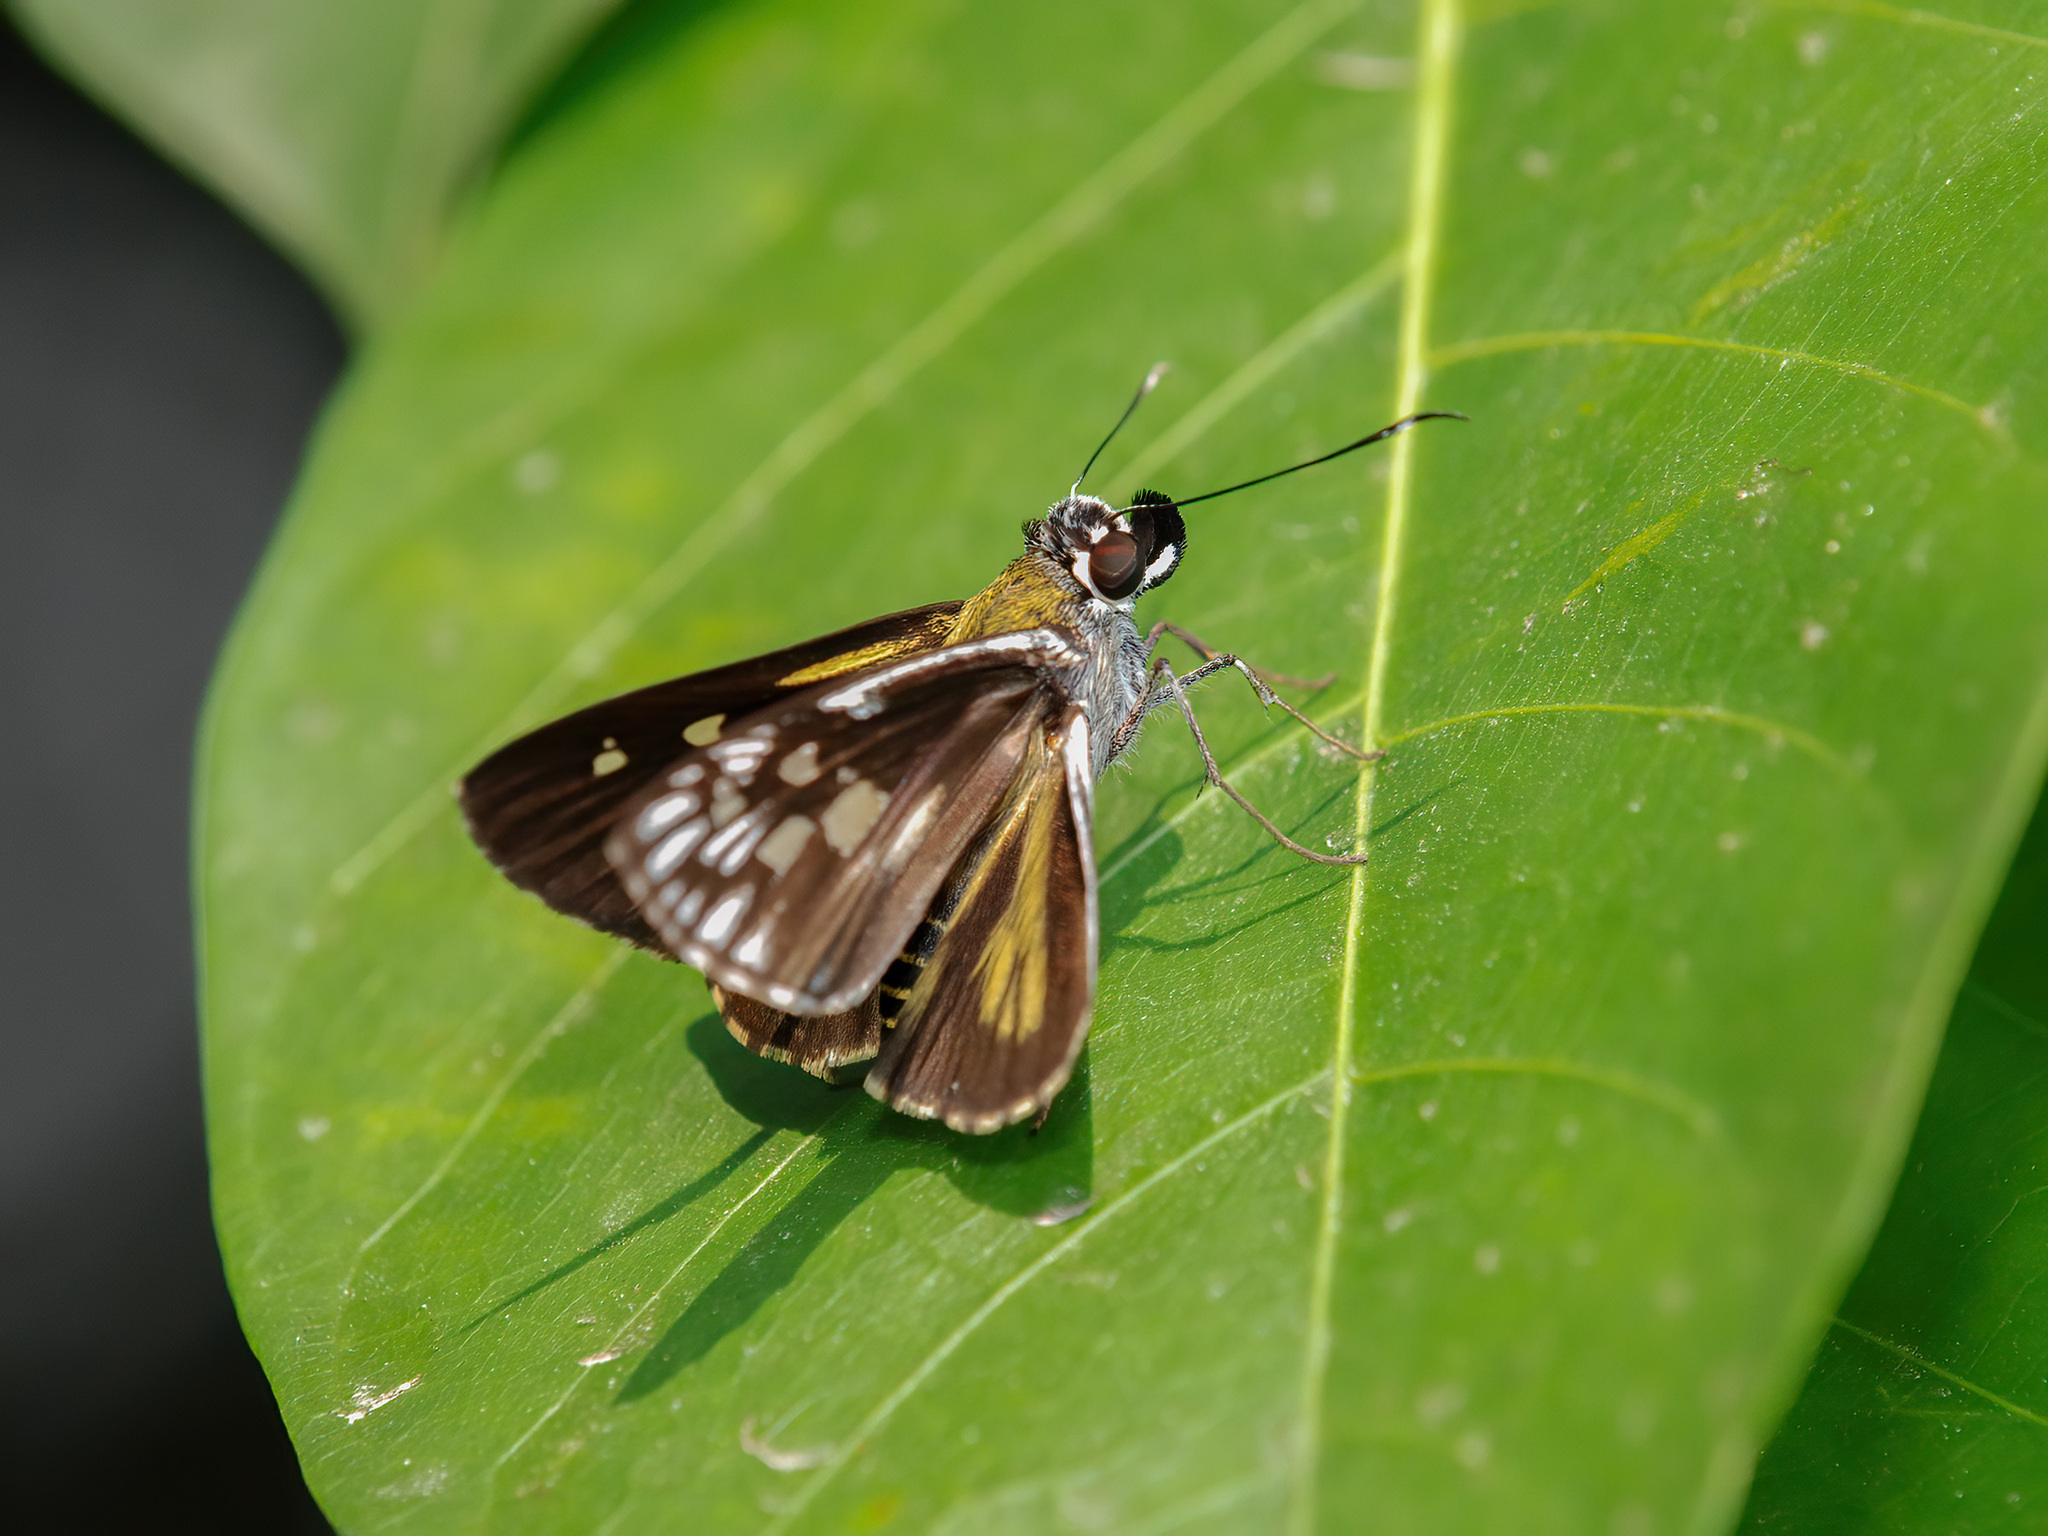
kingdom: Animalia
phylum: Arthropoda
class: Insecta
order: Lepidoptera
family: Hesperiidae
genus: Plastingia
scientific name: Plastingia naga
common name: Chequered lancer
